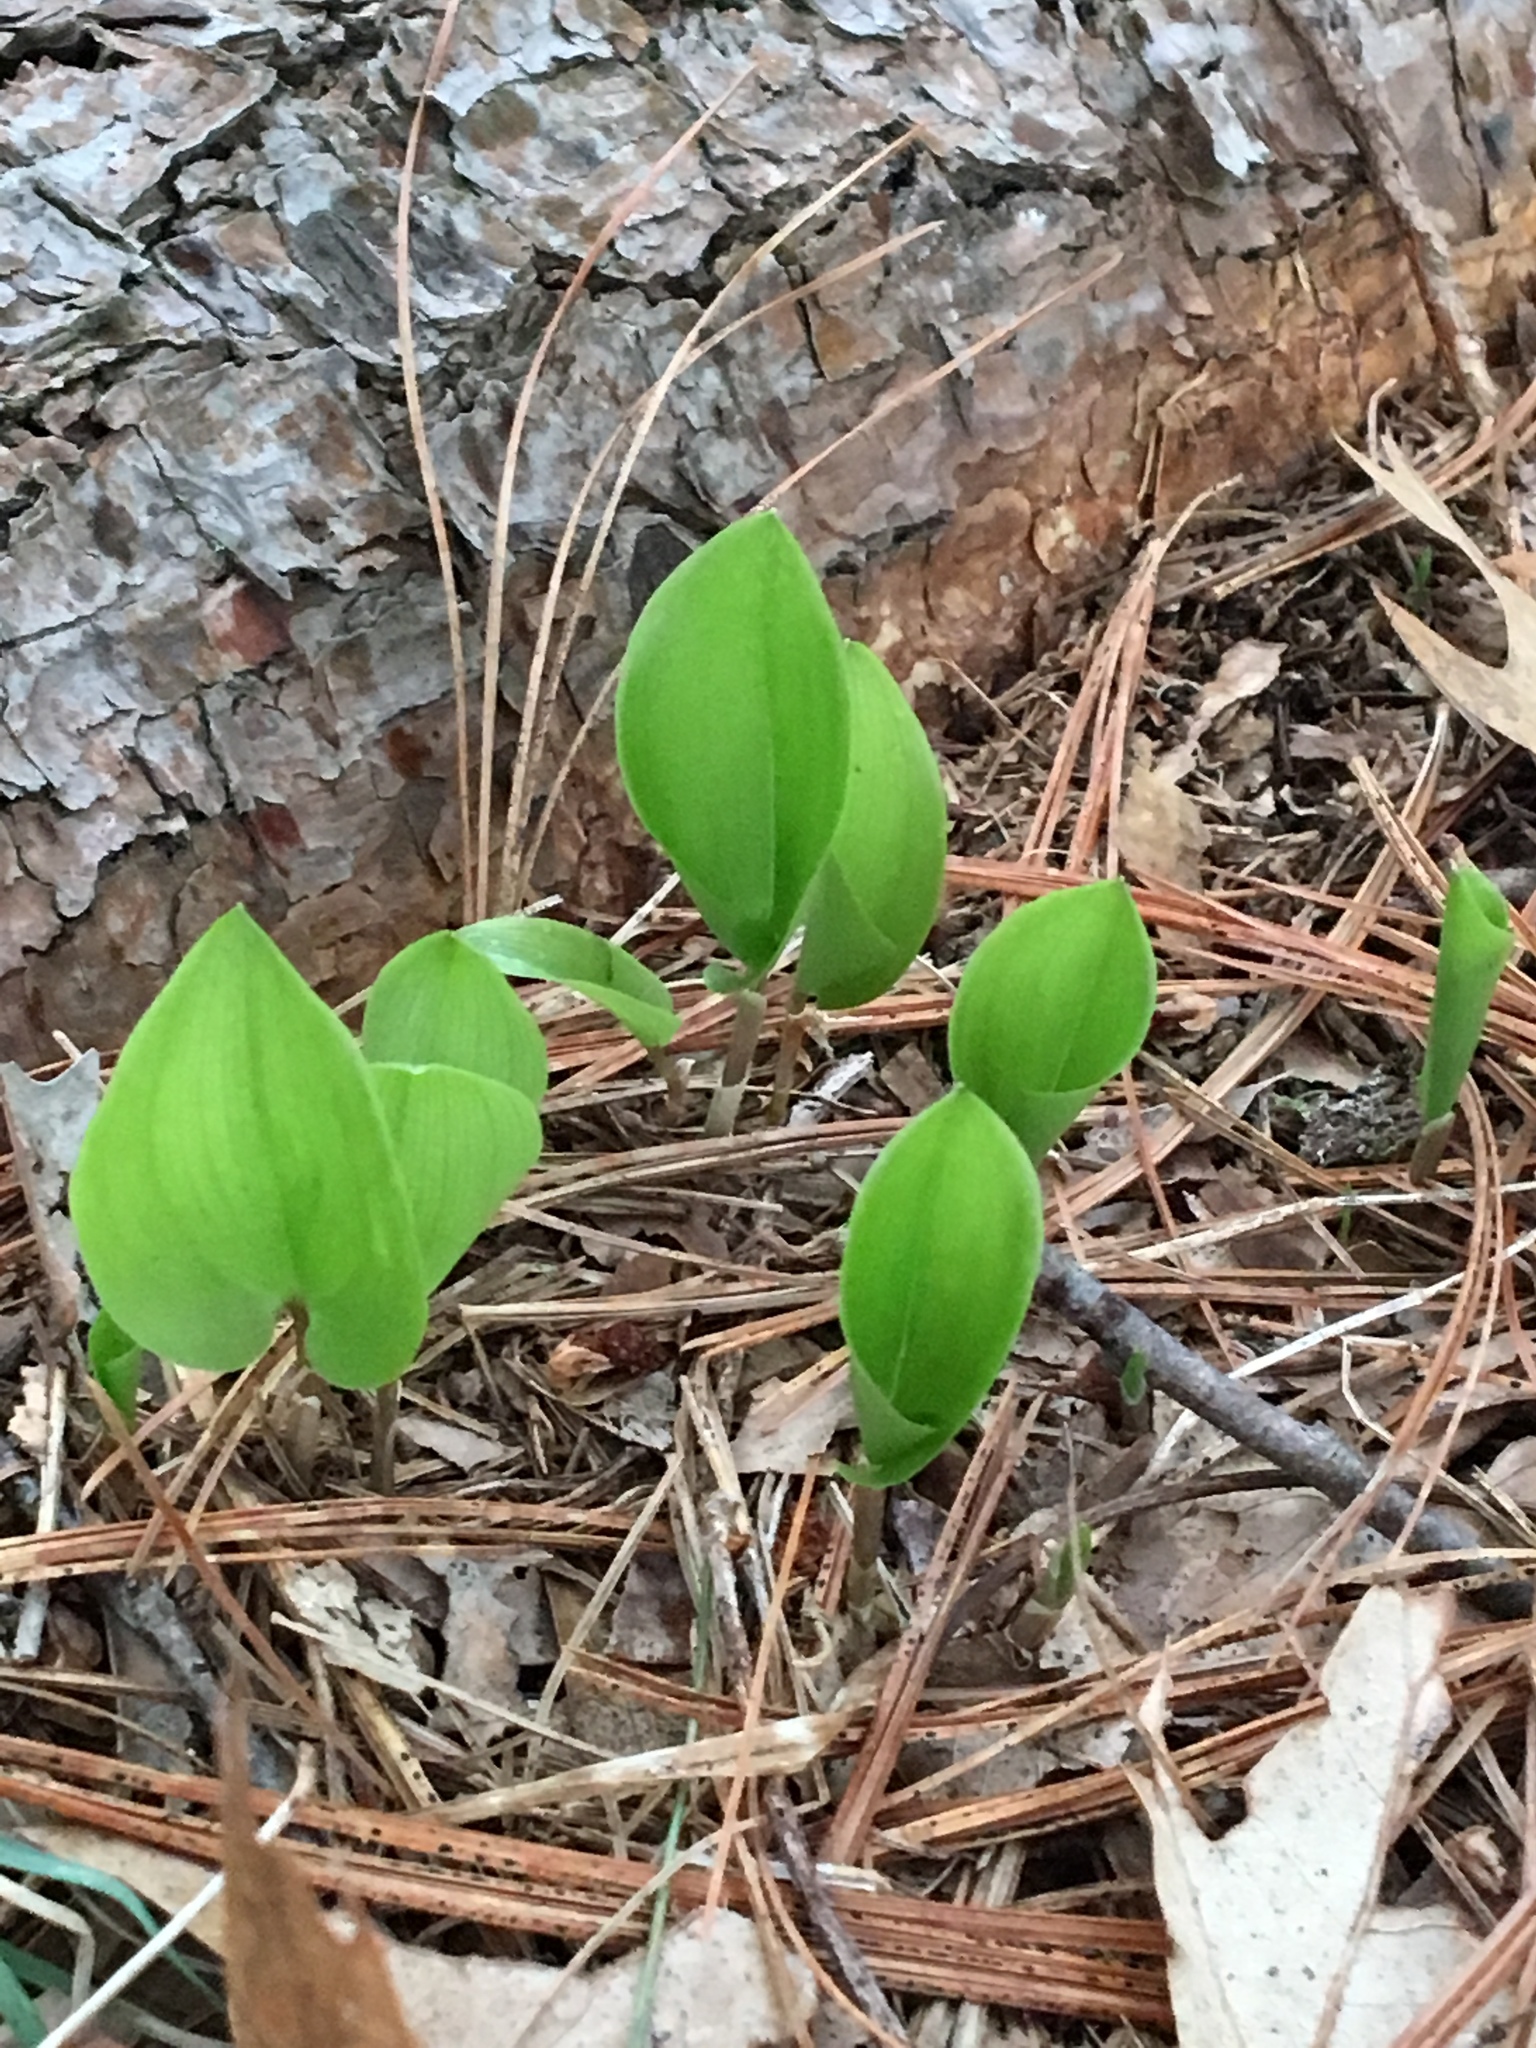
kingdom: Plantae
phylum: Tracheophyta
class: Liliopsida
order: Asparagales
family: Asparagaceae
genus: Maianthemum
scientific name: Maianthemum canadense
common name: False lily-of-the-valley
